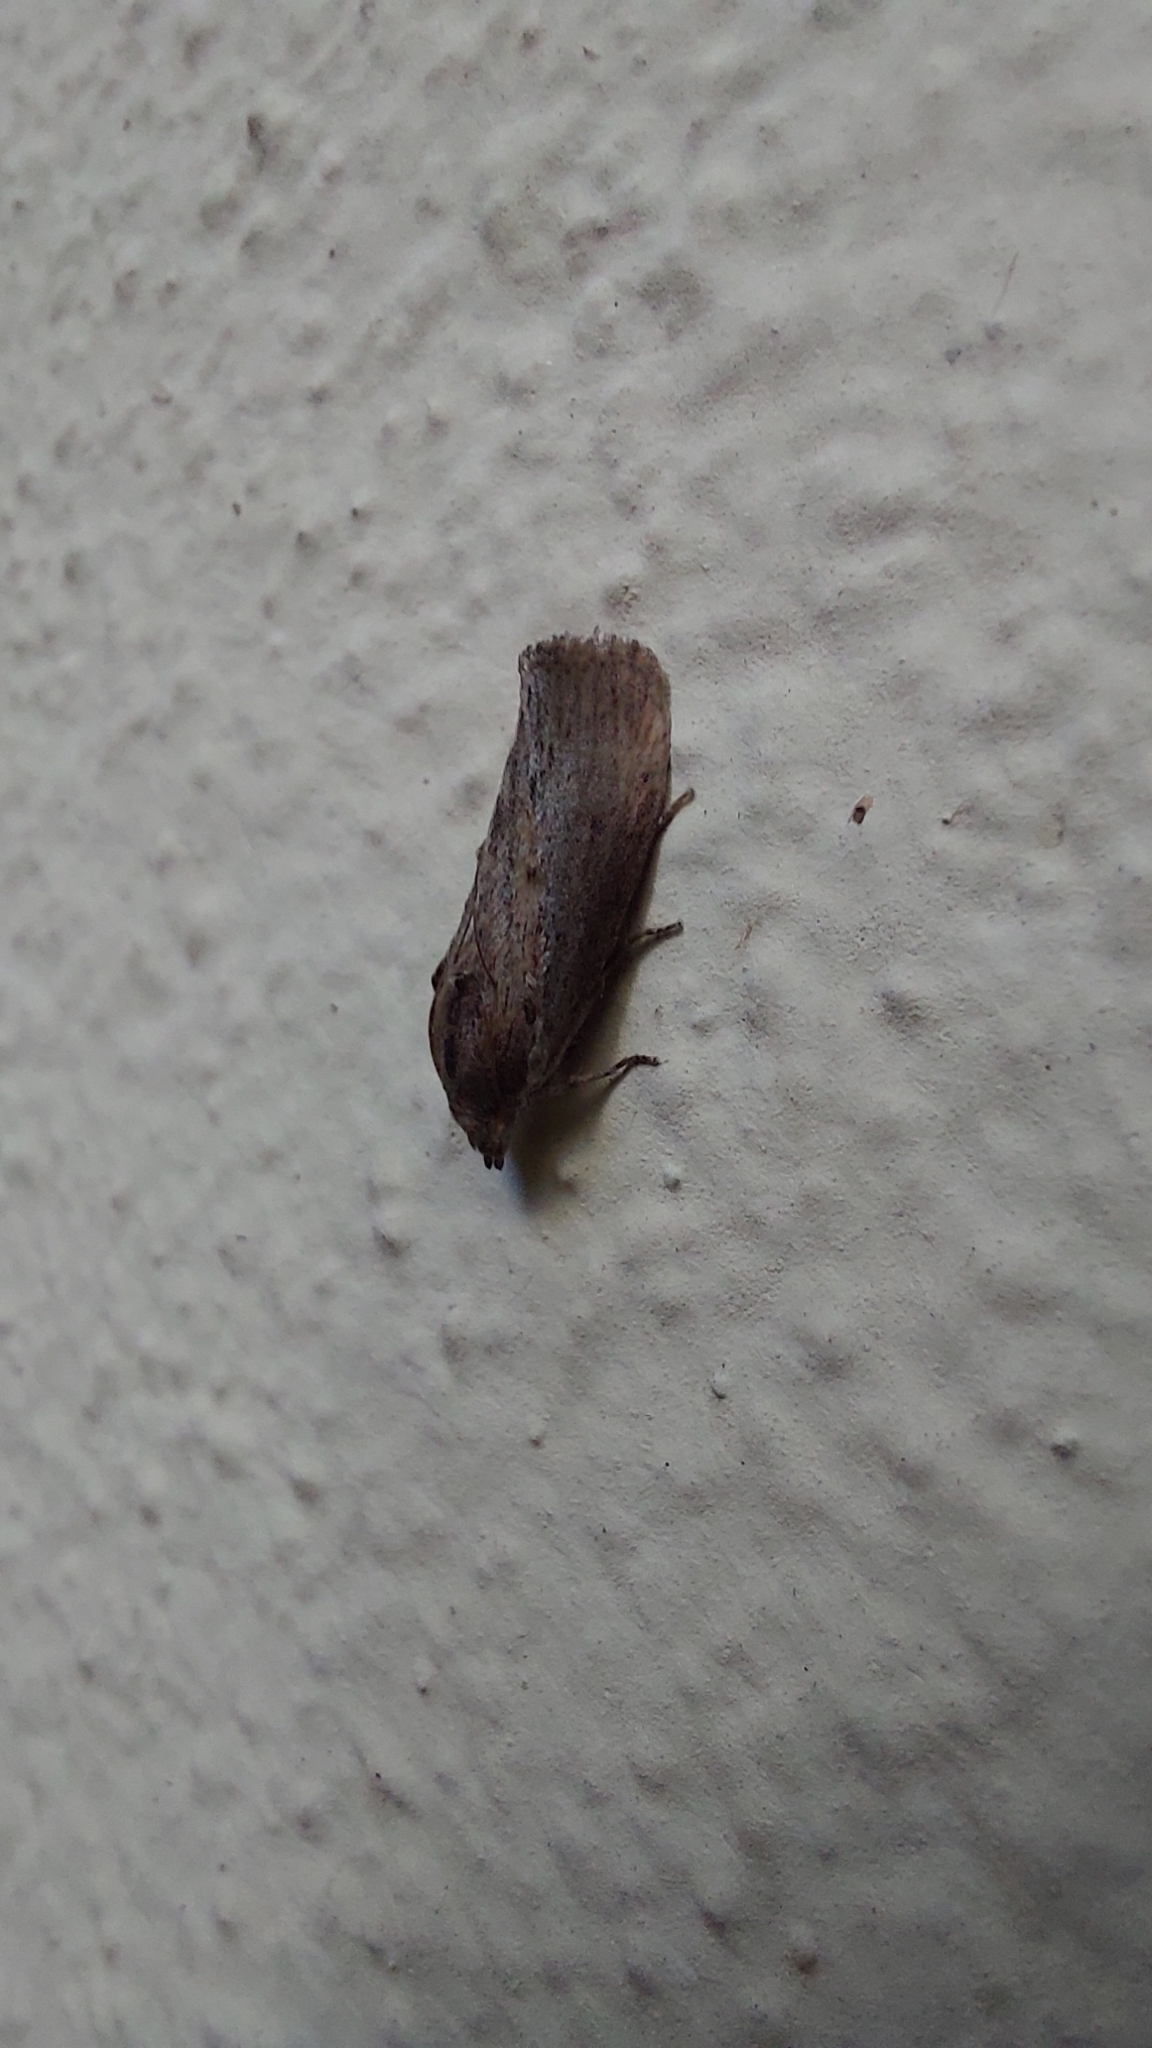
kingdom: Animalia
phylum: Arthropoda
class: Insecta
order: Lepidoptera
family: Pyralidae
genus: Galleria
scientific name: Galleria mellonella
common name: Greater wax moth
